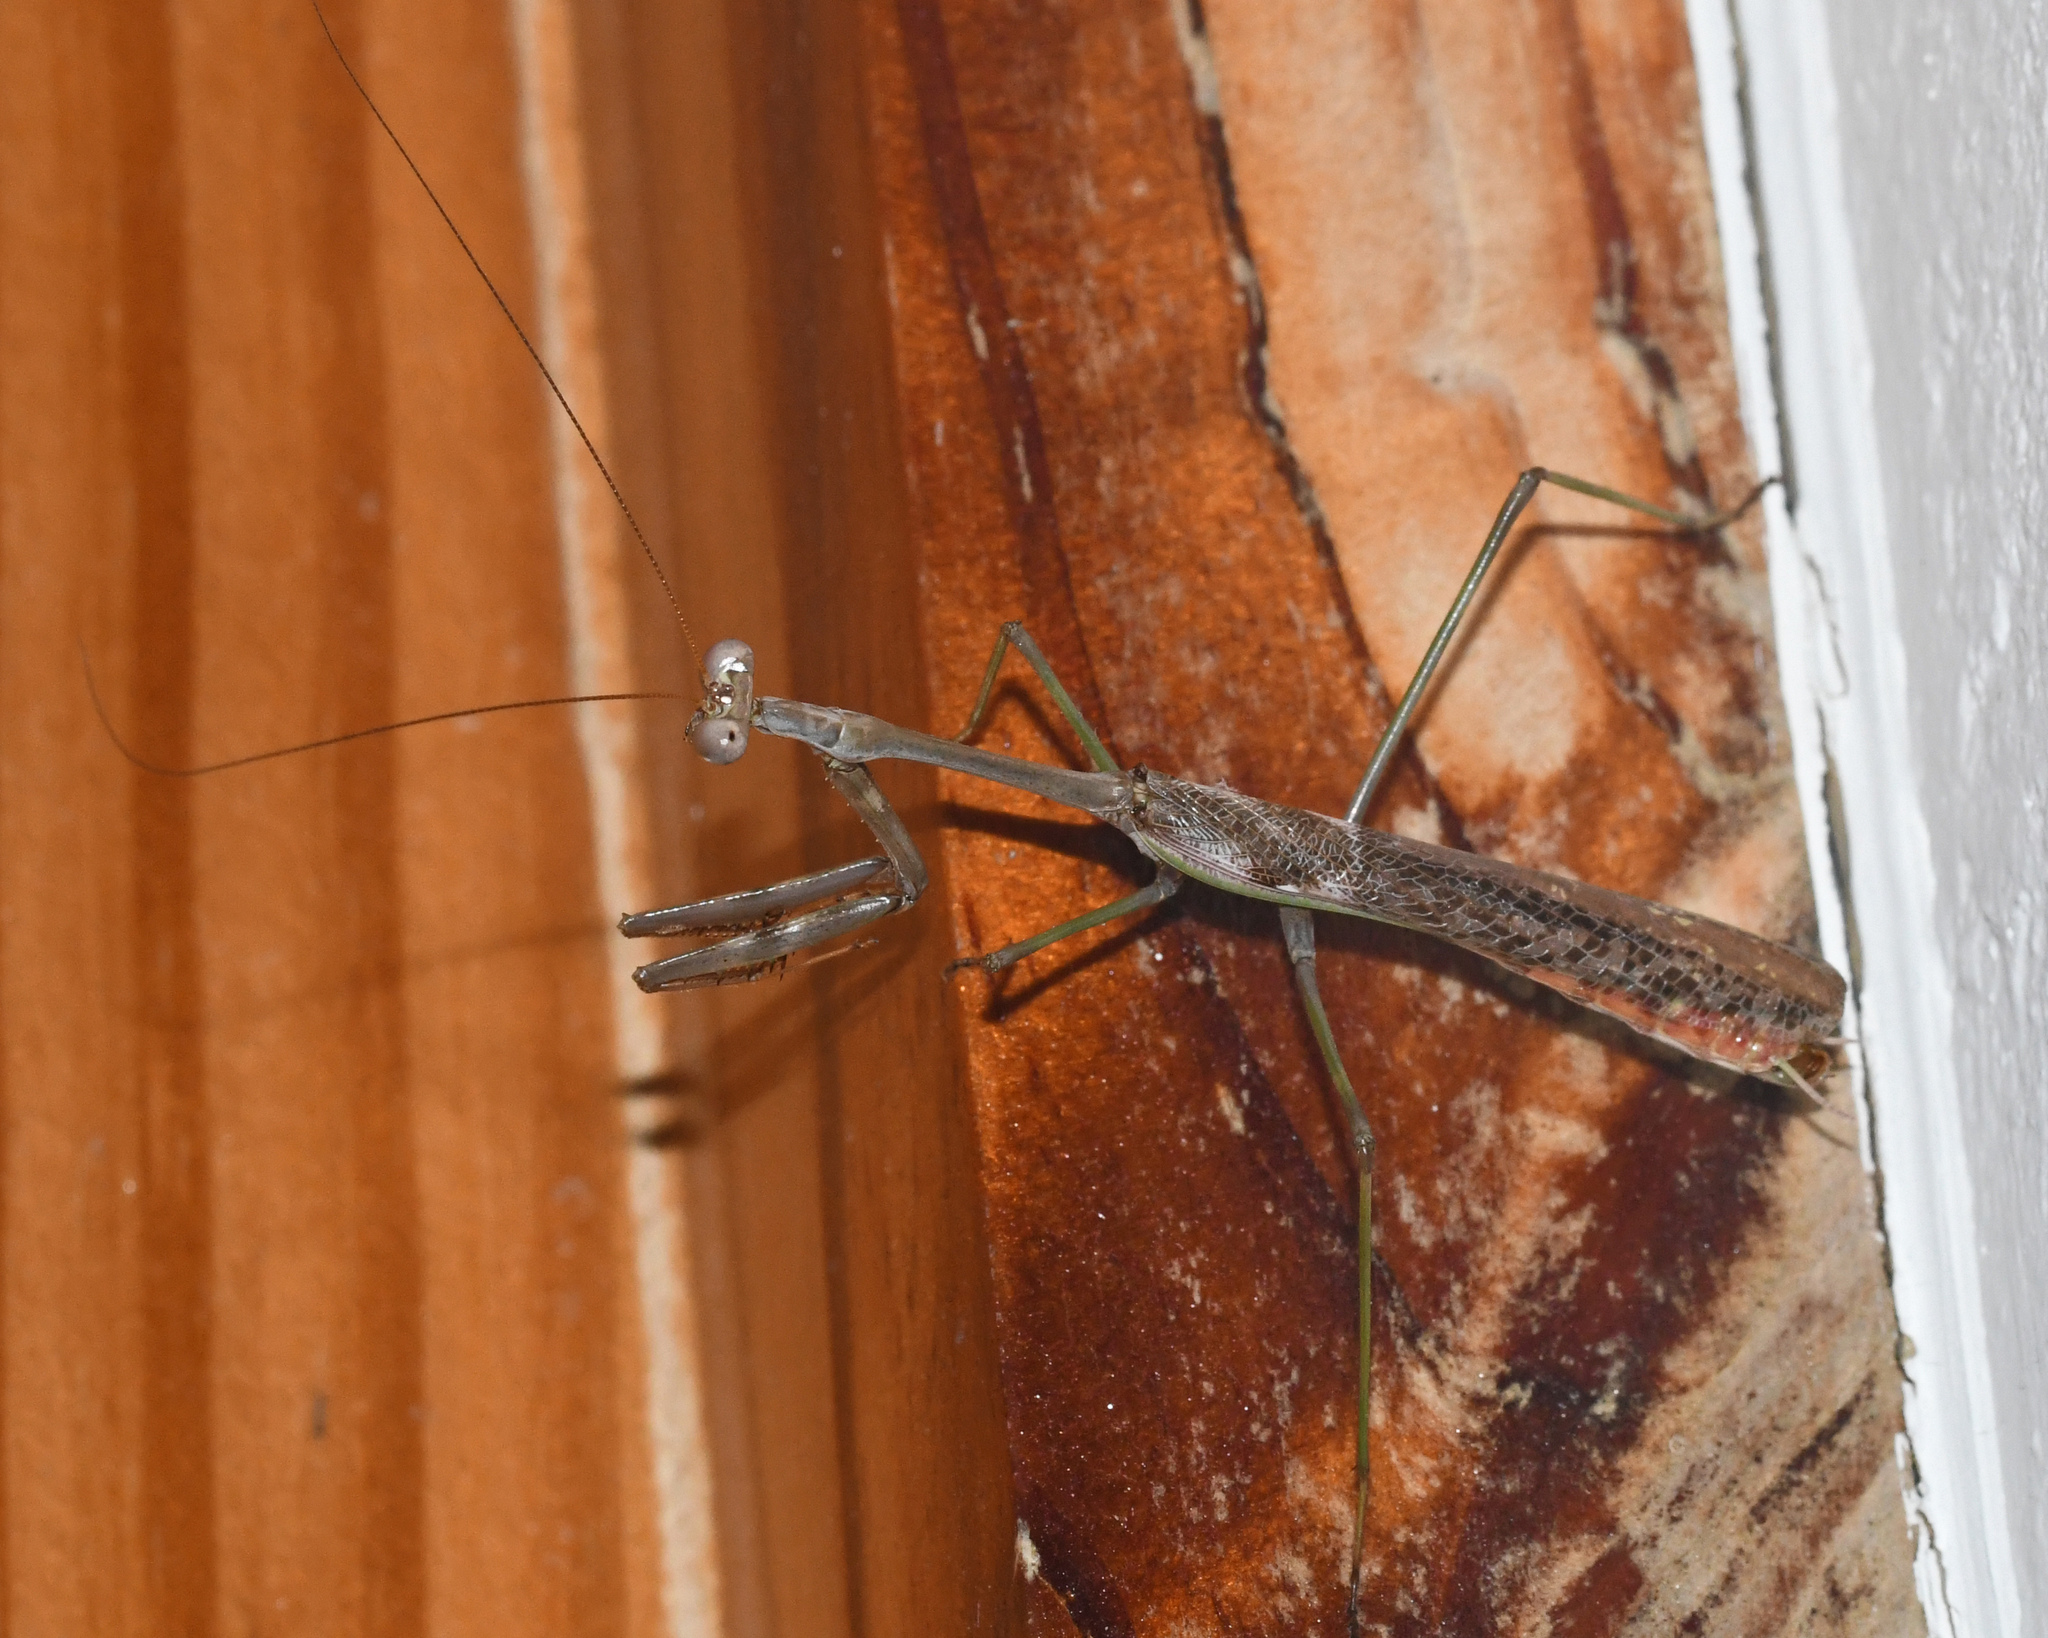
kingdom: Animalia
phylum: Arthropoda
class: Insecta
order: Mantodea
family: Mantidae
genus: Stagmomantis
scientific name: Stagmomantis domingensis
